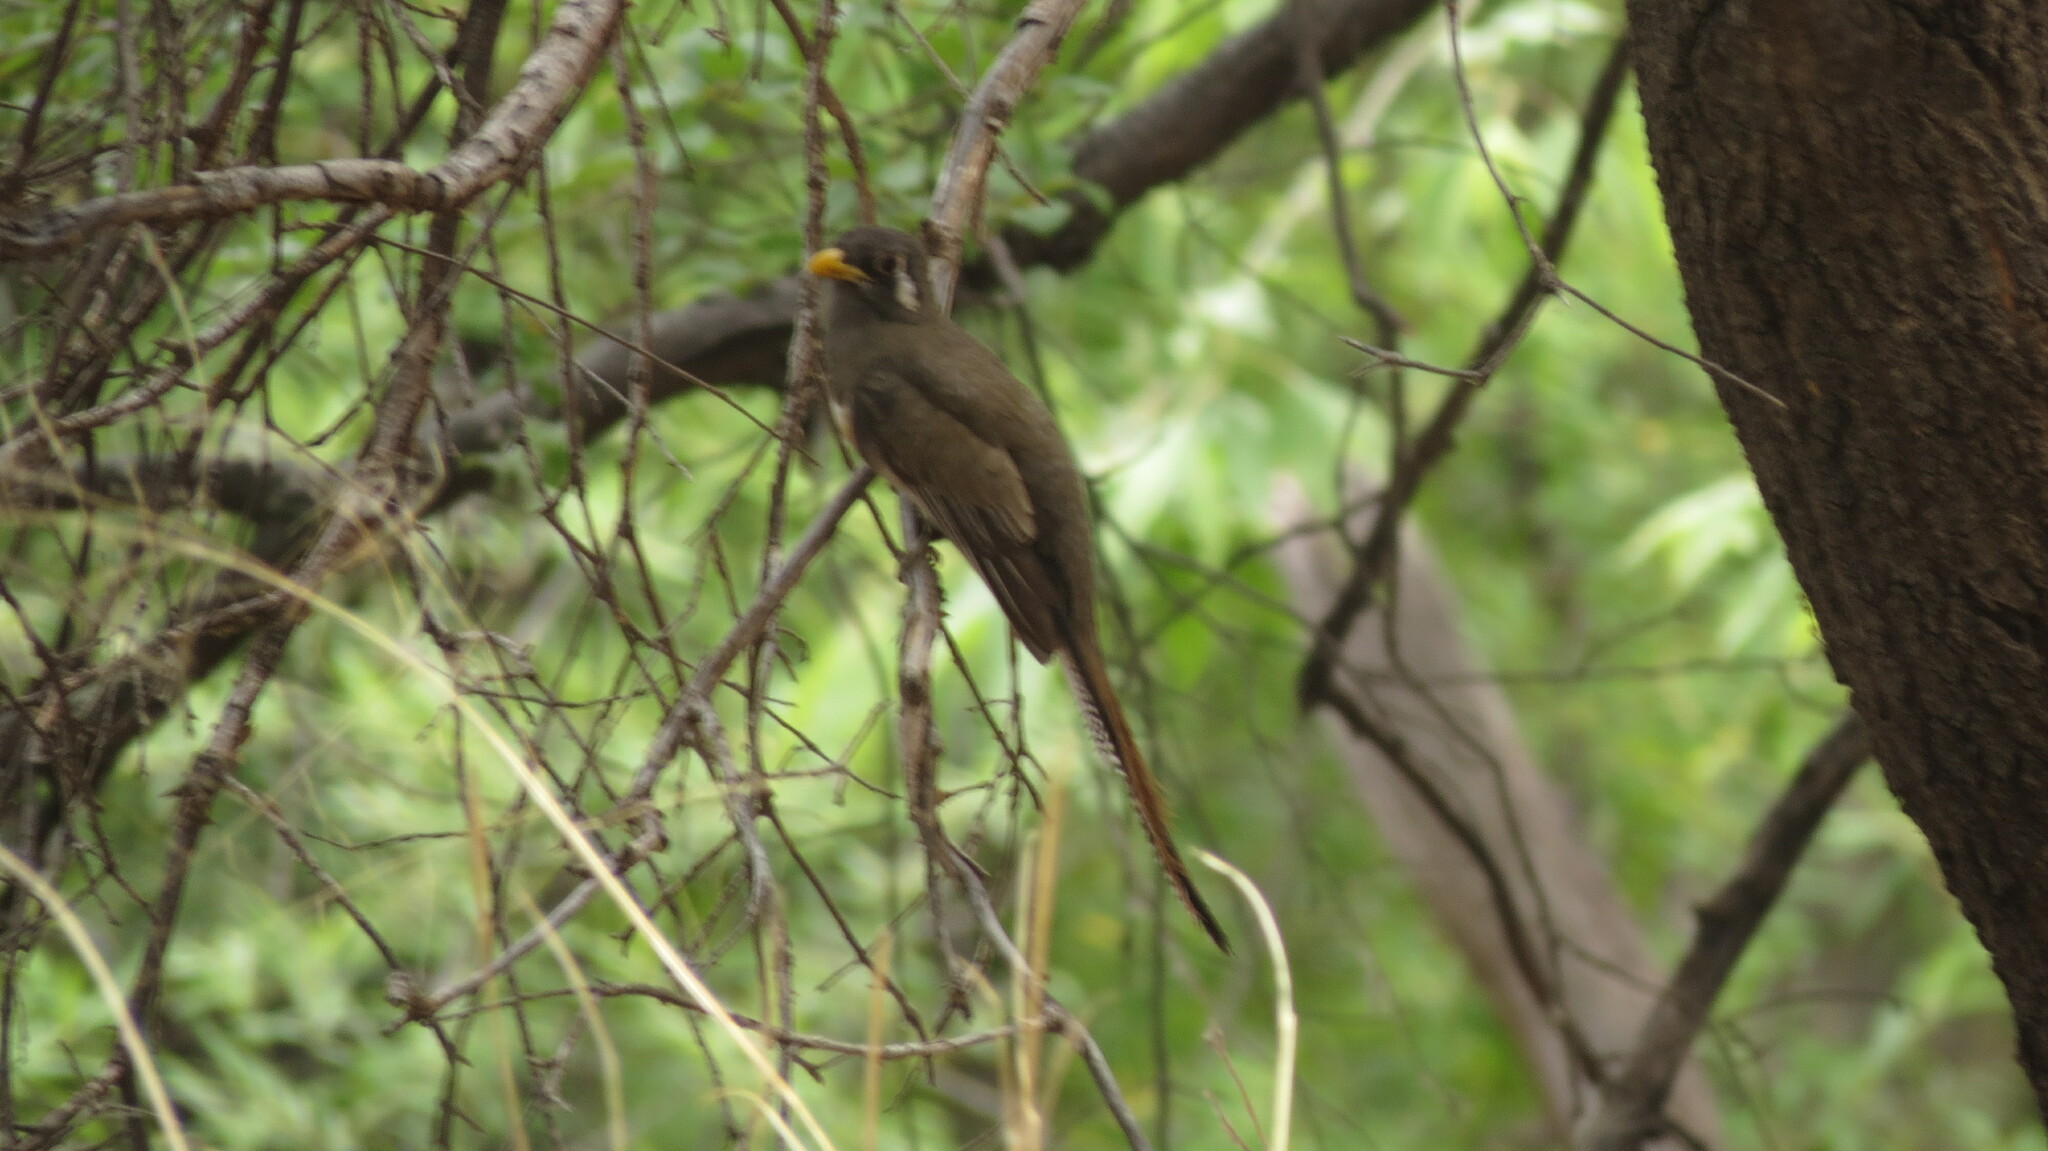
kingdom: Animalia
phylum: Chordata
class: Aves
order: Trogoniformes
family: Trogonidae
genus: Trogon
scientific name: Trogon elegans
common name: Elegant trogon
